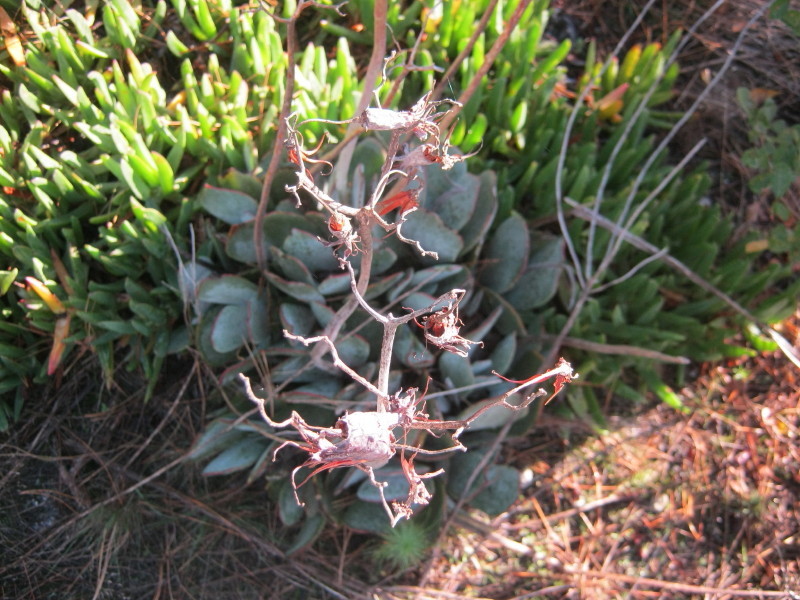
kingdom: Plantae
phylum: Tracheophyta
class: Magnoliopsida
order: Saxifragales
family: Crassulaceae
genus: Cotyledon
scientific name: Cotyledon orbiculata
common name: Pig's ear
